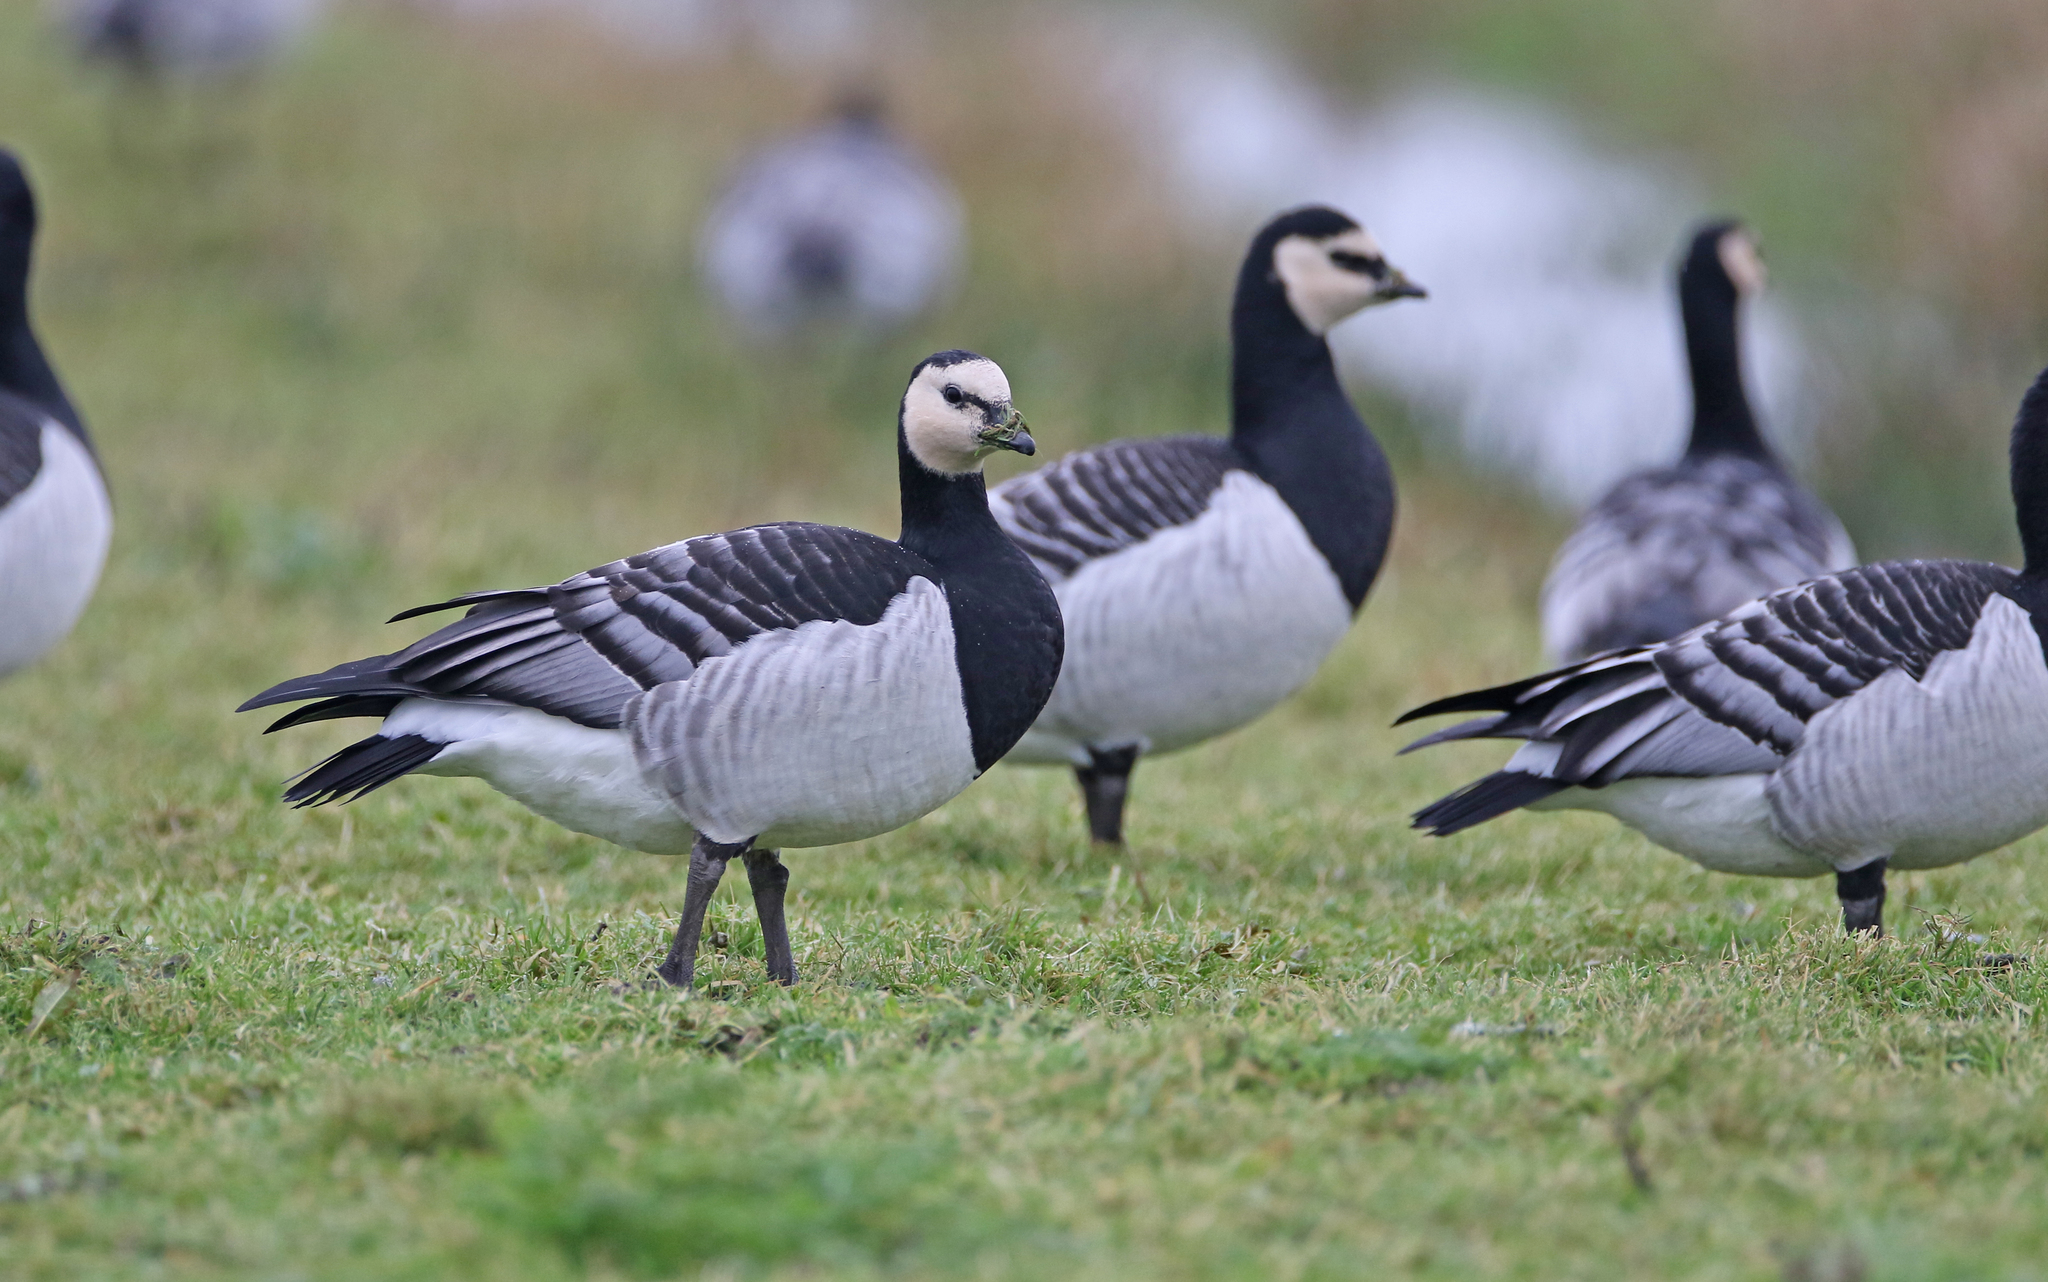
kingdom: Animalia
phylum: Chordata
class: Aves
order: Anseriformes
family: Anatidae
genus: Branta
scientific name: Branta leucopsis
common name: Barnacle goose
